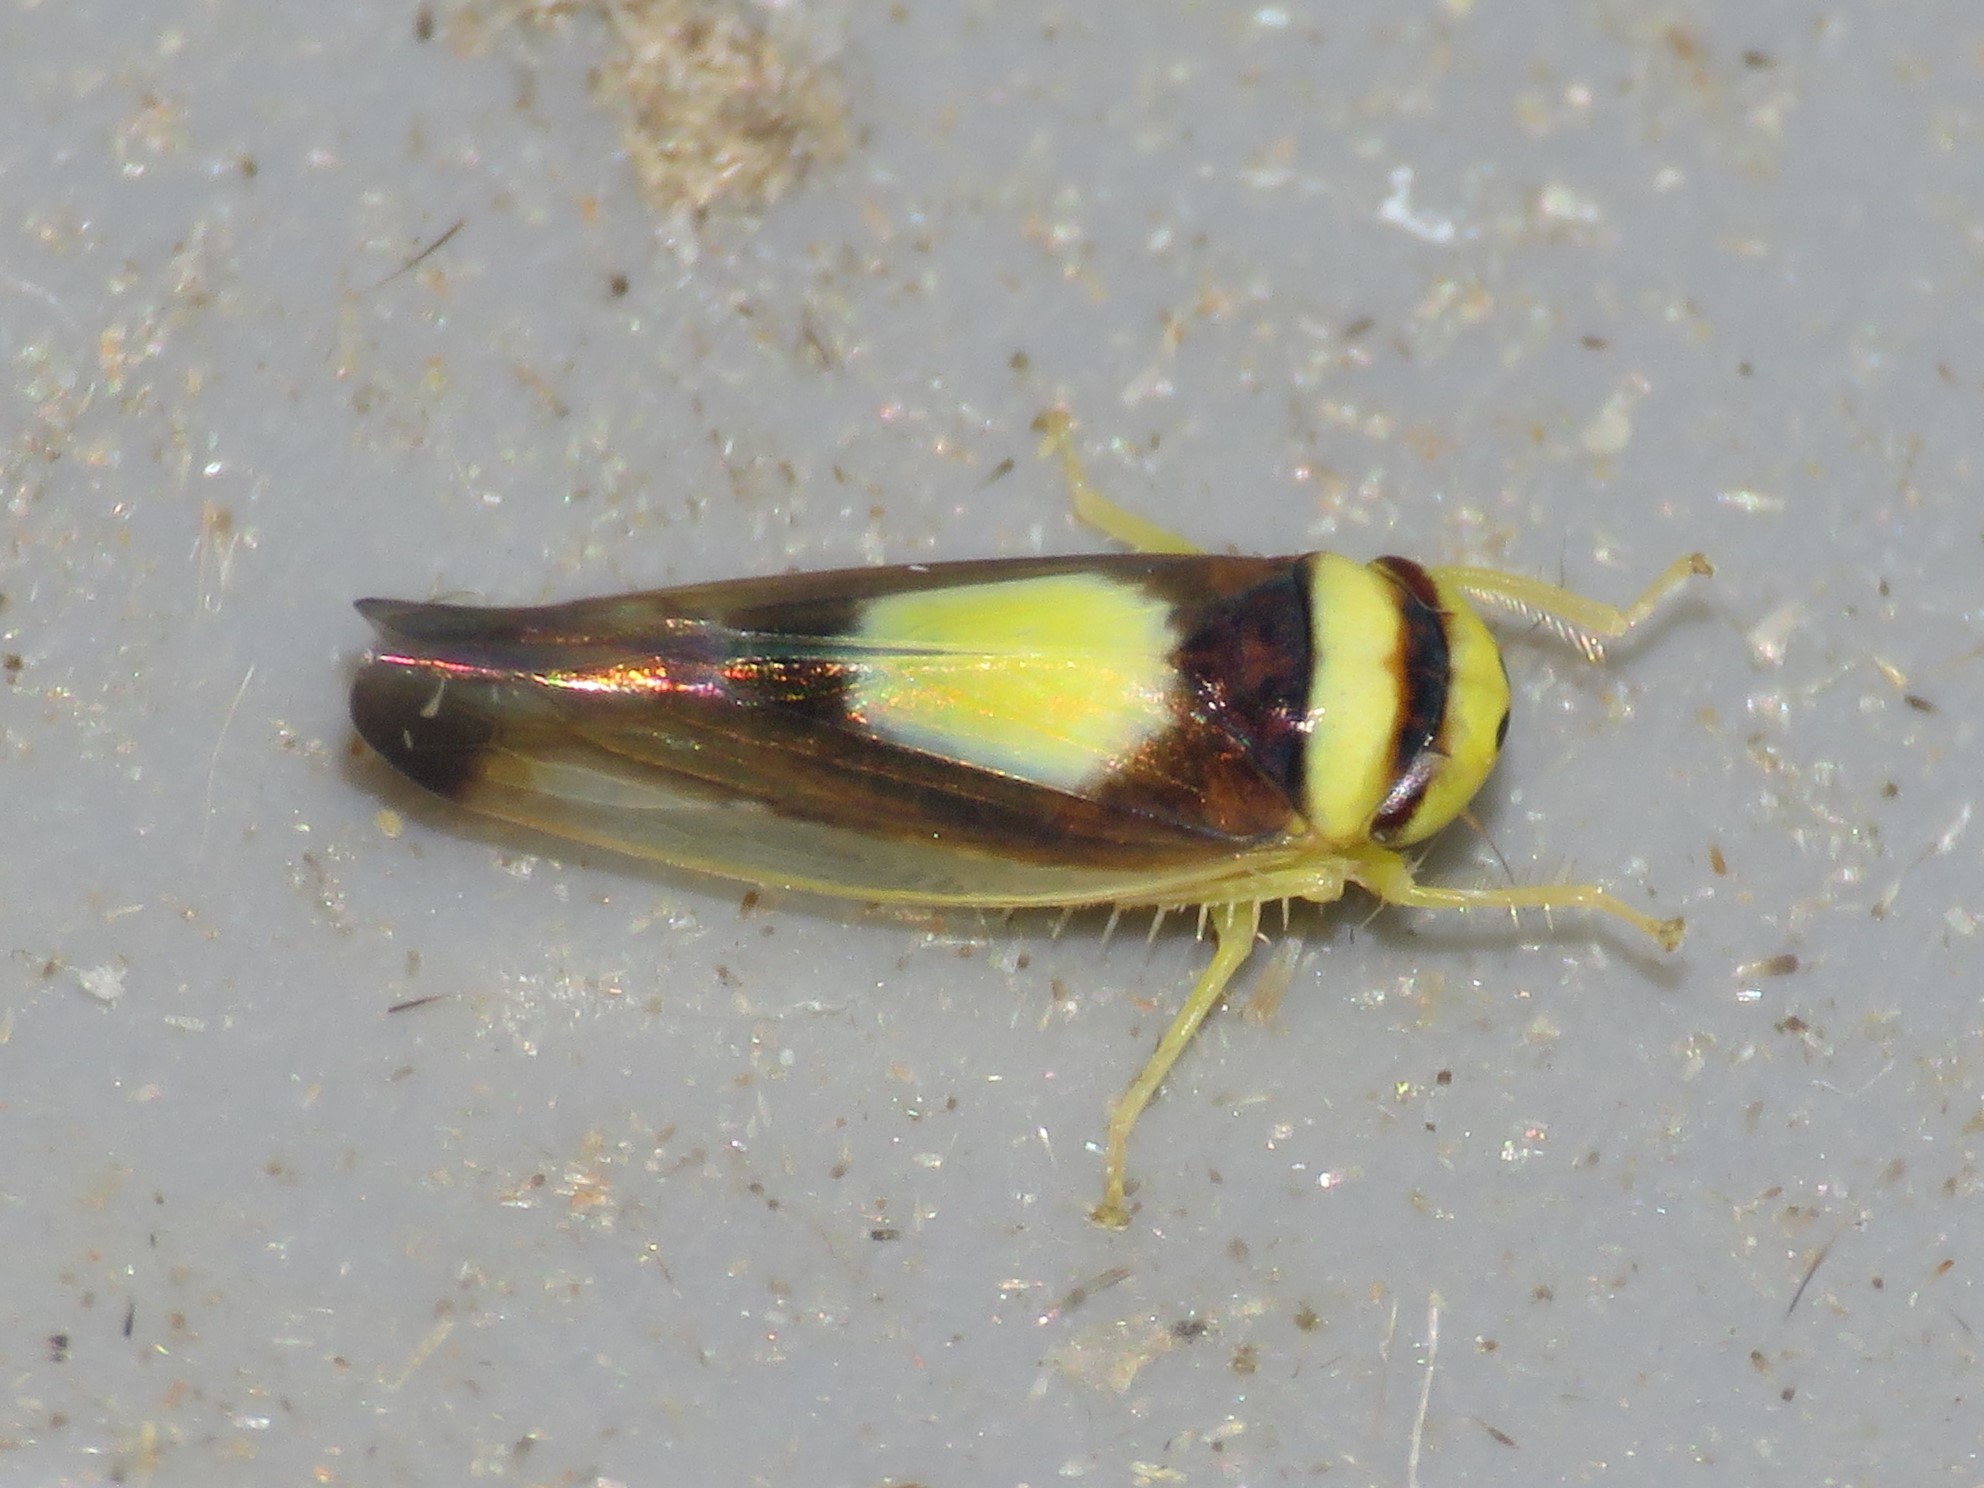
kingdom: Animalia
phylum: Arthropoda
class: Insecta
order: Hemiptera
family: Cicadellidae
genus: Colladonus
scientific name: Colladonus clitellarius
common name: The saddleback leafhopper
